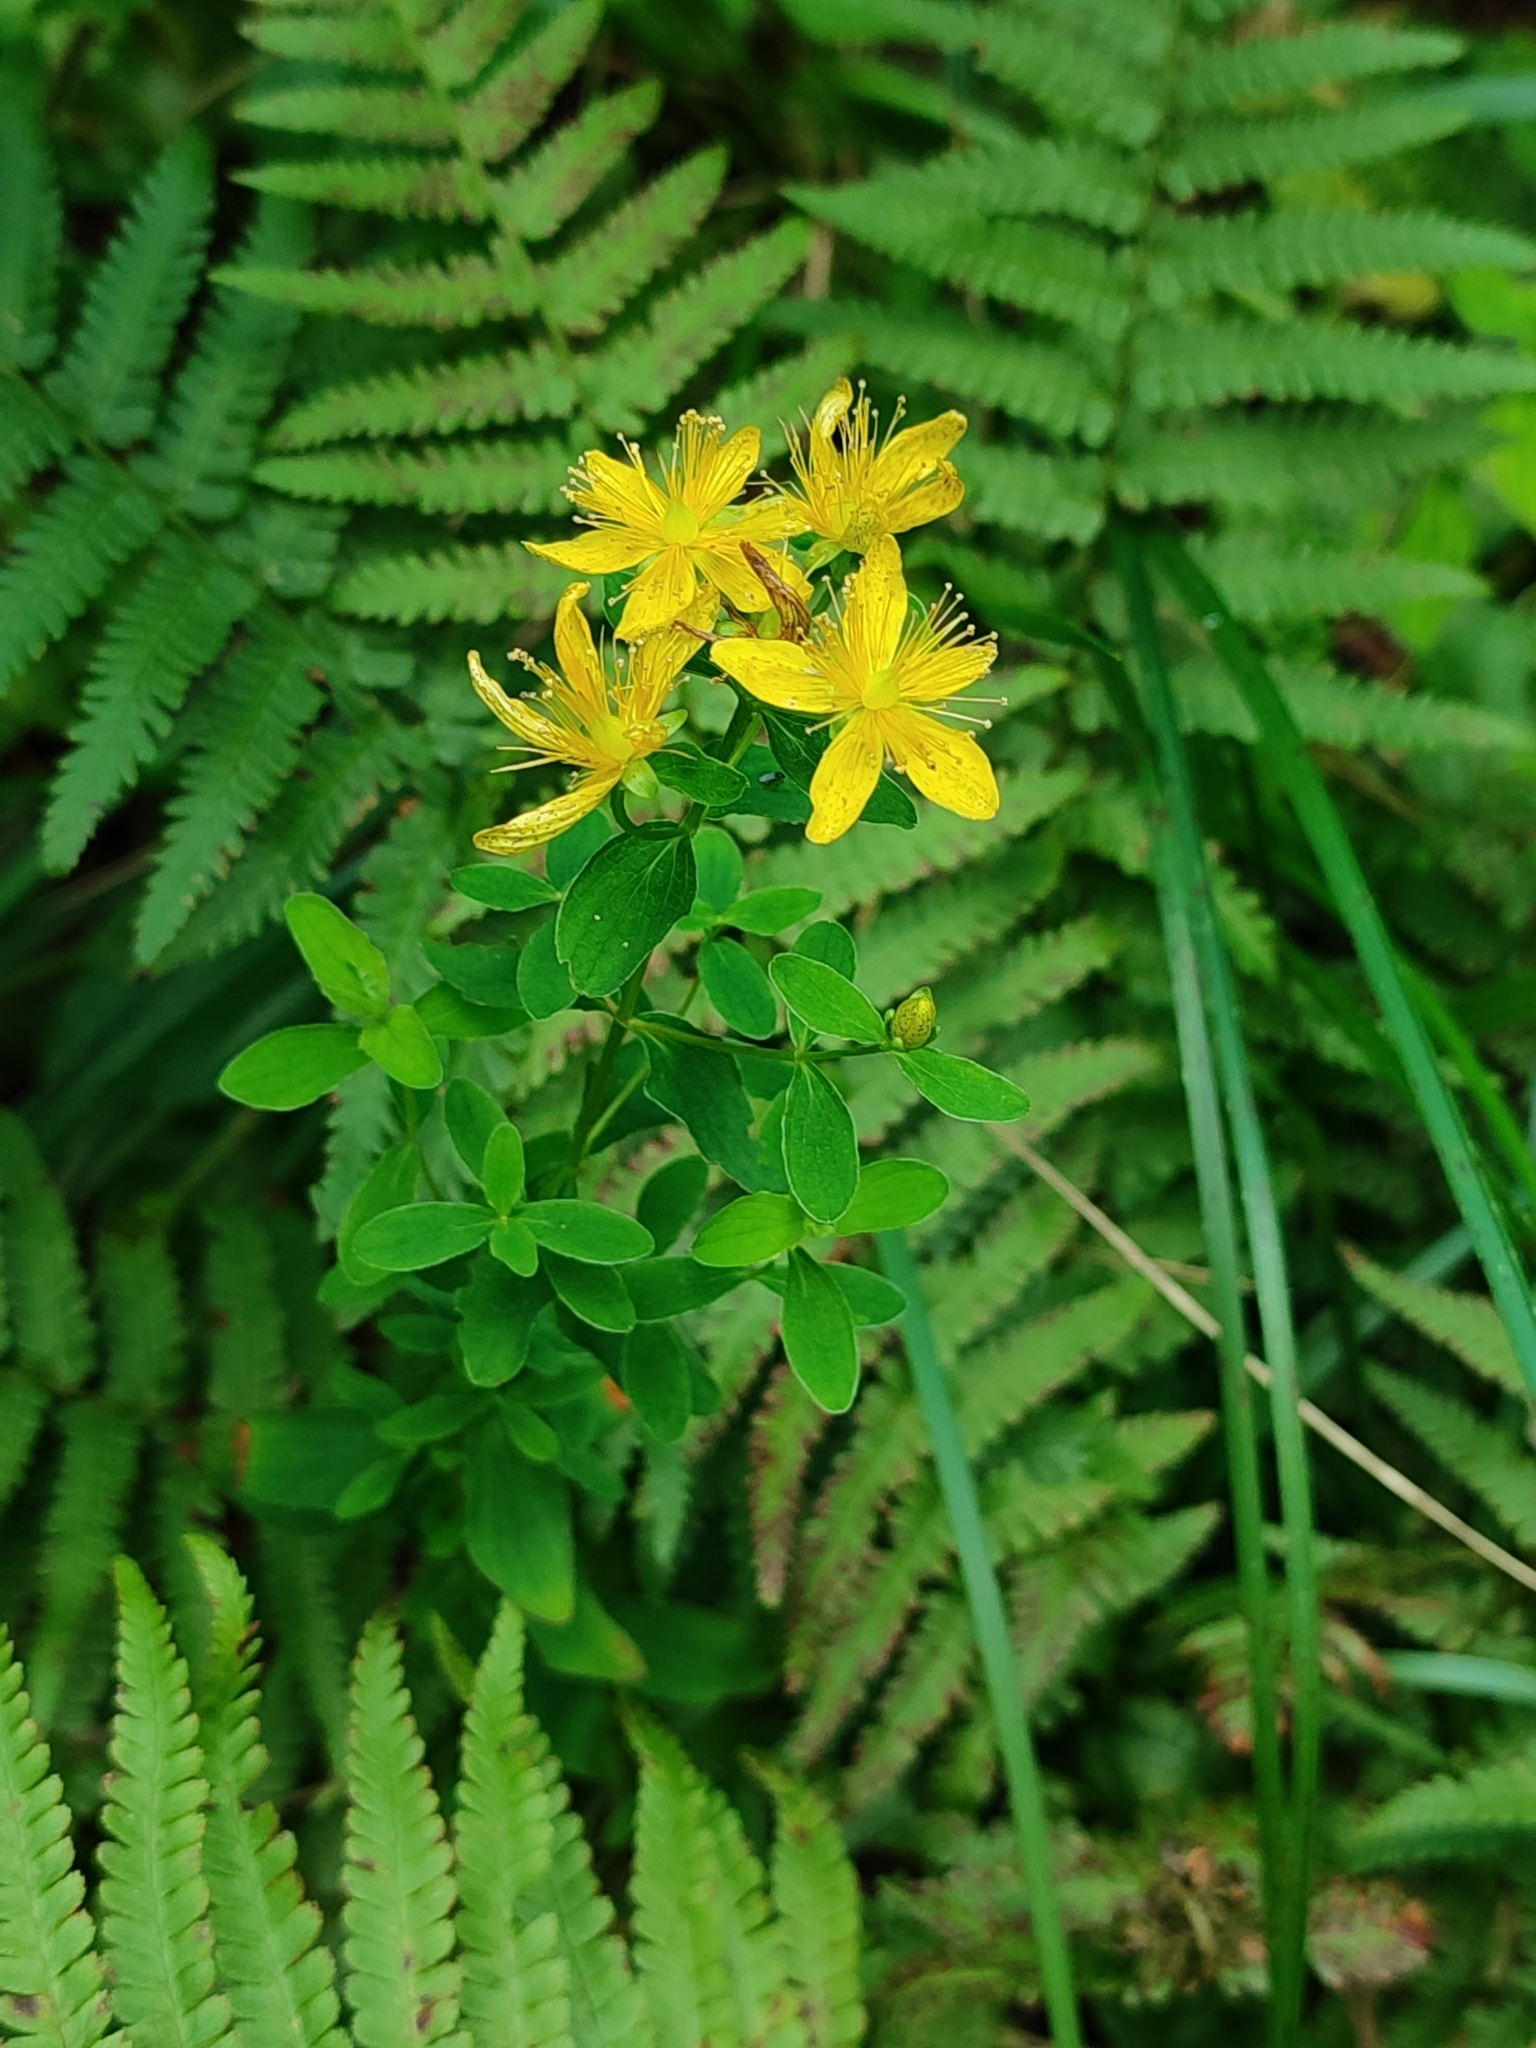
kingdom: Plantae
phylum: Tracheophyta
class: Magnoliopsida
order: Malpighiales
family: Hypericaceae
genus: Hypericum
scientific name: Hypericum maculatum
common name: Imperforate st. john's-wort
